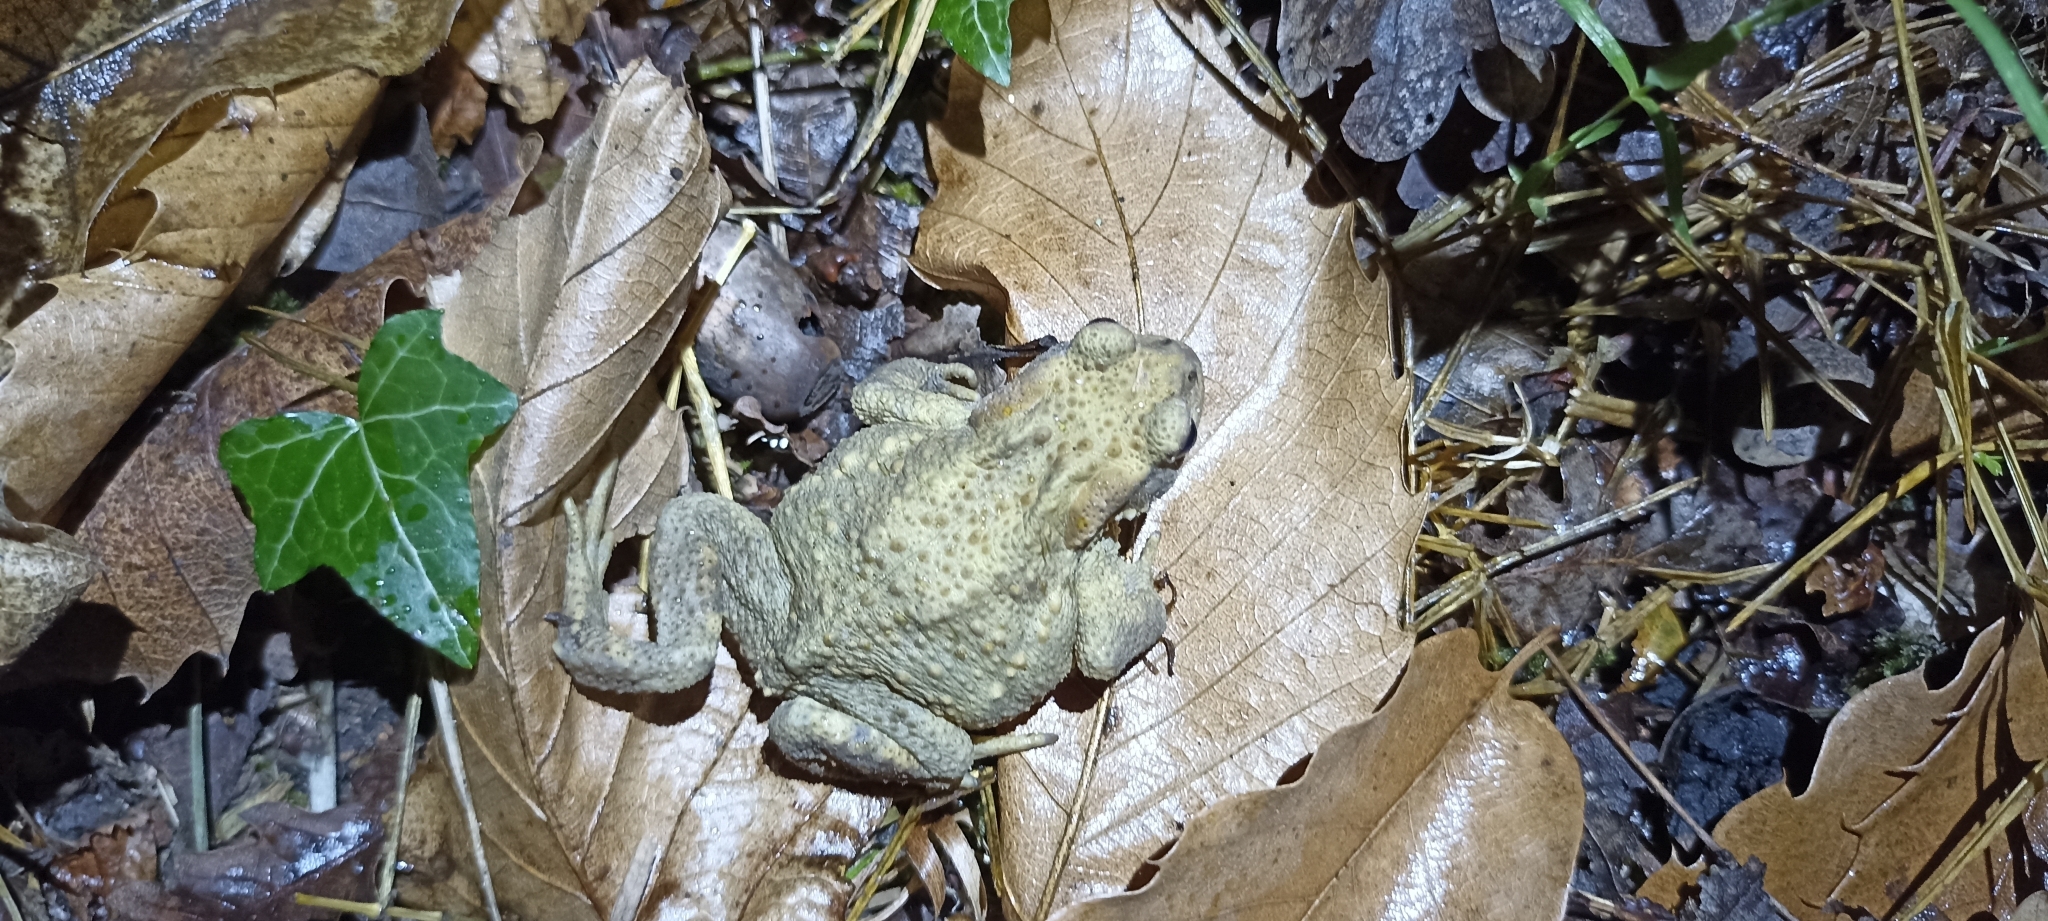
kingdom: Animalia
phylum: Chordata
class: Amphibia
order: Anura
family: Bufonidae
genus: Bufo
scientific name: Bufo spinosus
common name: Western common toad
